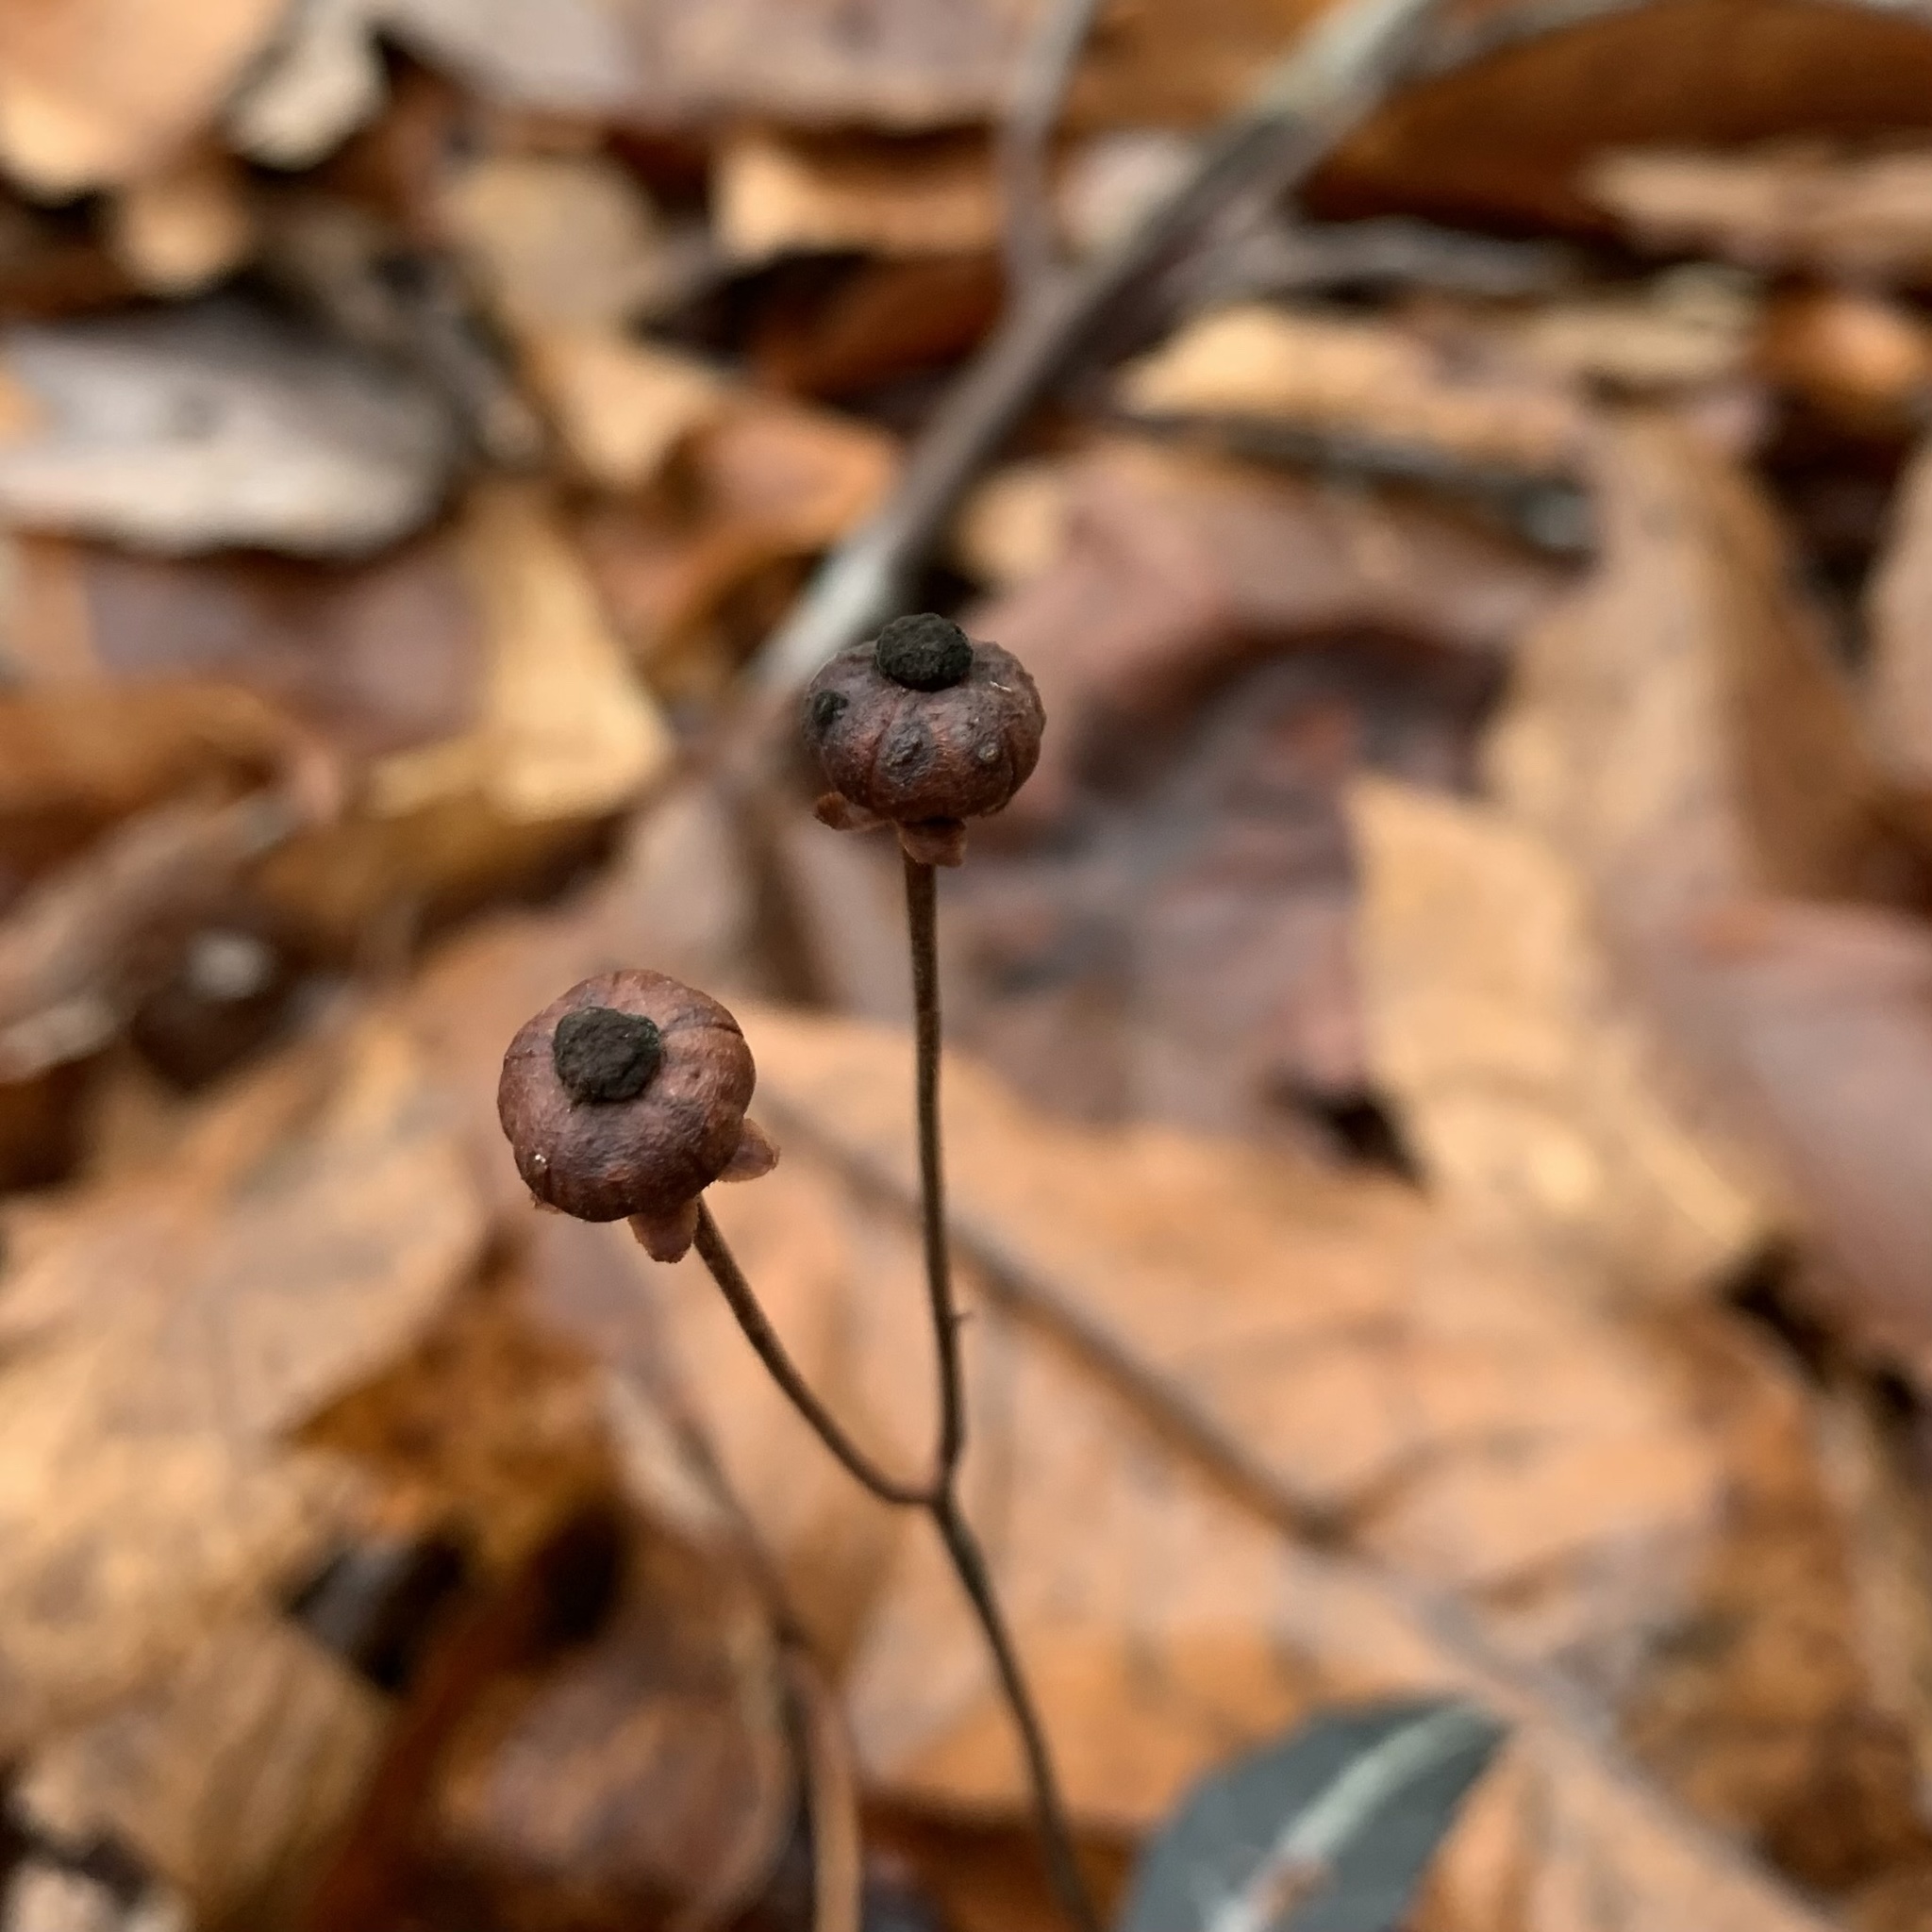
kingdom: Plantae
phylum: Tracheophyta
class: Magnoliopsida
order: Ericales
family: Ericaceae
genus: Chimaphila
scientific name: Chimaphila maculata
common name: Spotted pipsissewa
